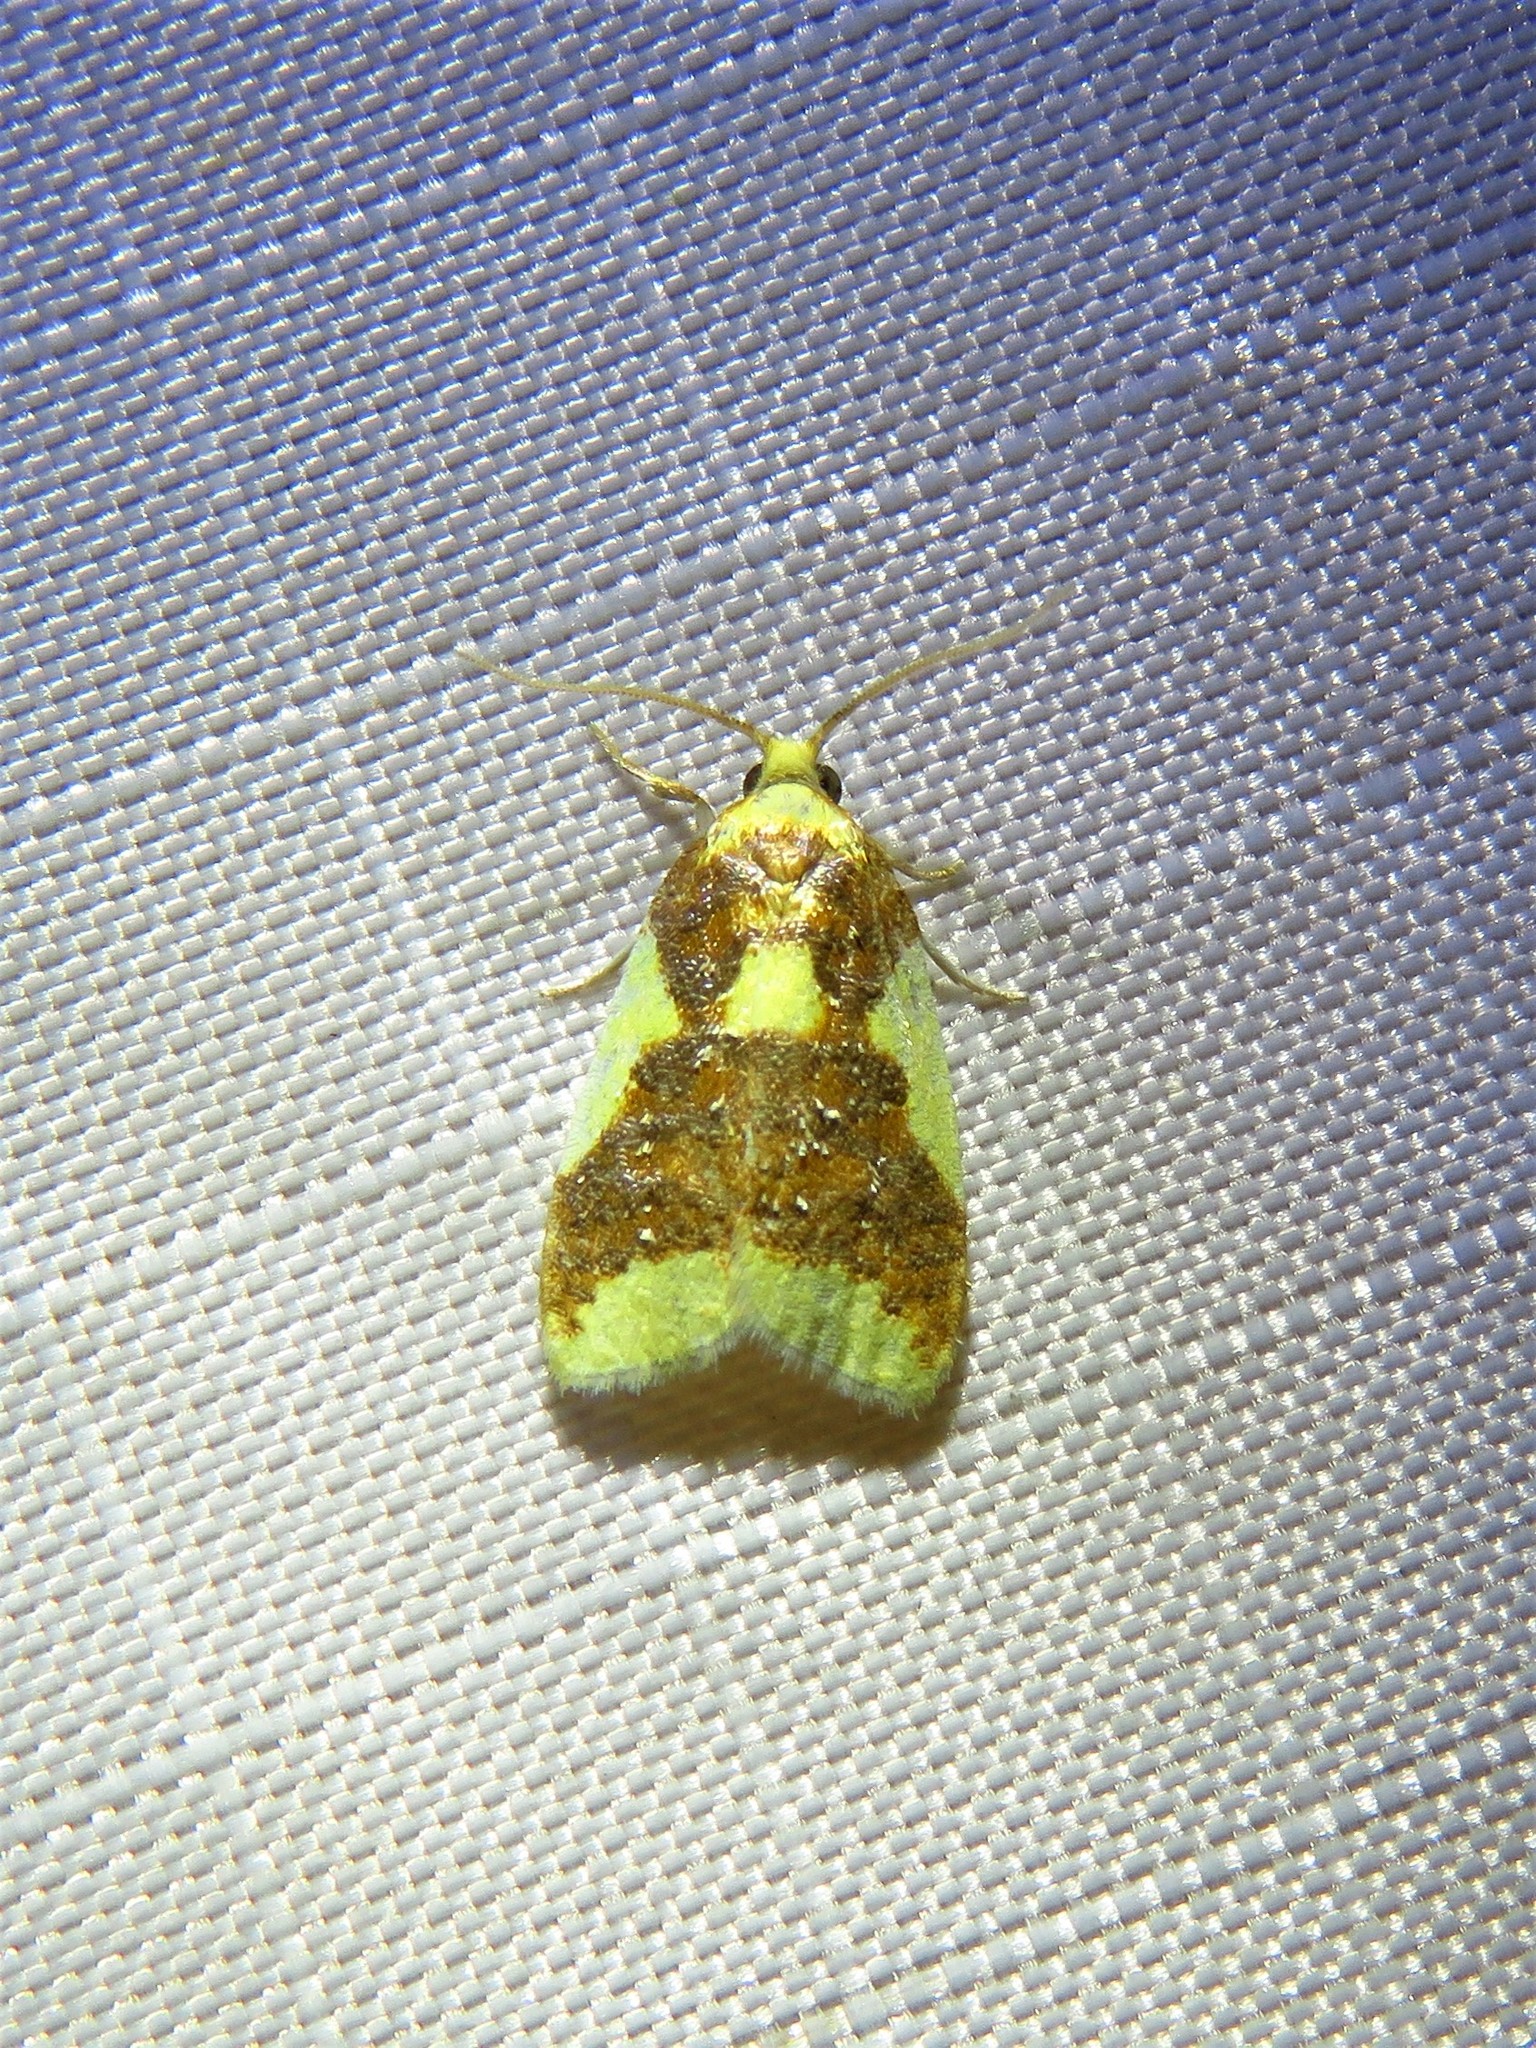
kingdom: Animalia
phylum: Arthropoda
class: Insecta
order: Lepidoptera
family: Tortricidae
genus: Sparganothis
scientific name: Sparganothis pulcherrimana
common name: Beautiful sparganothis
